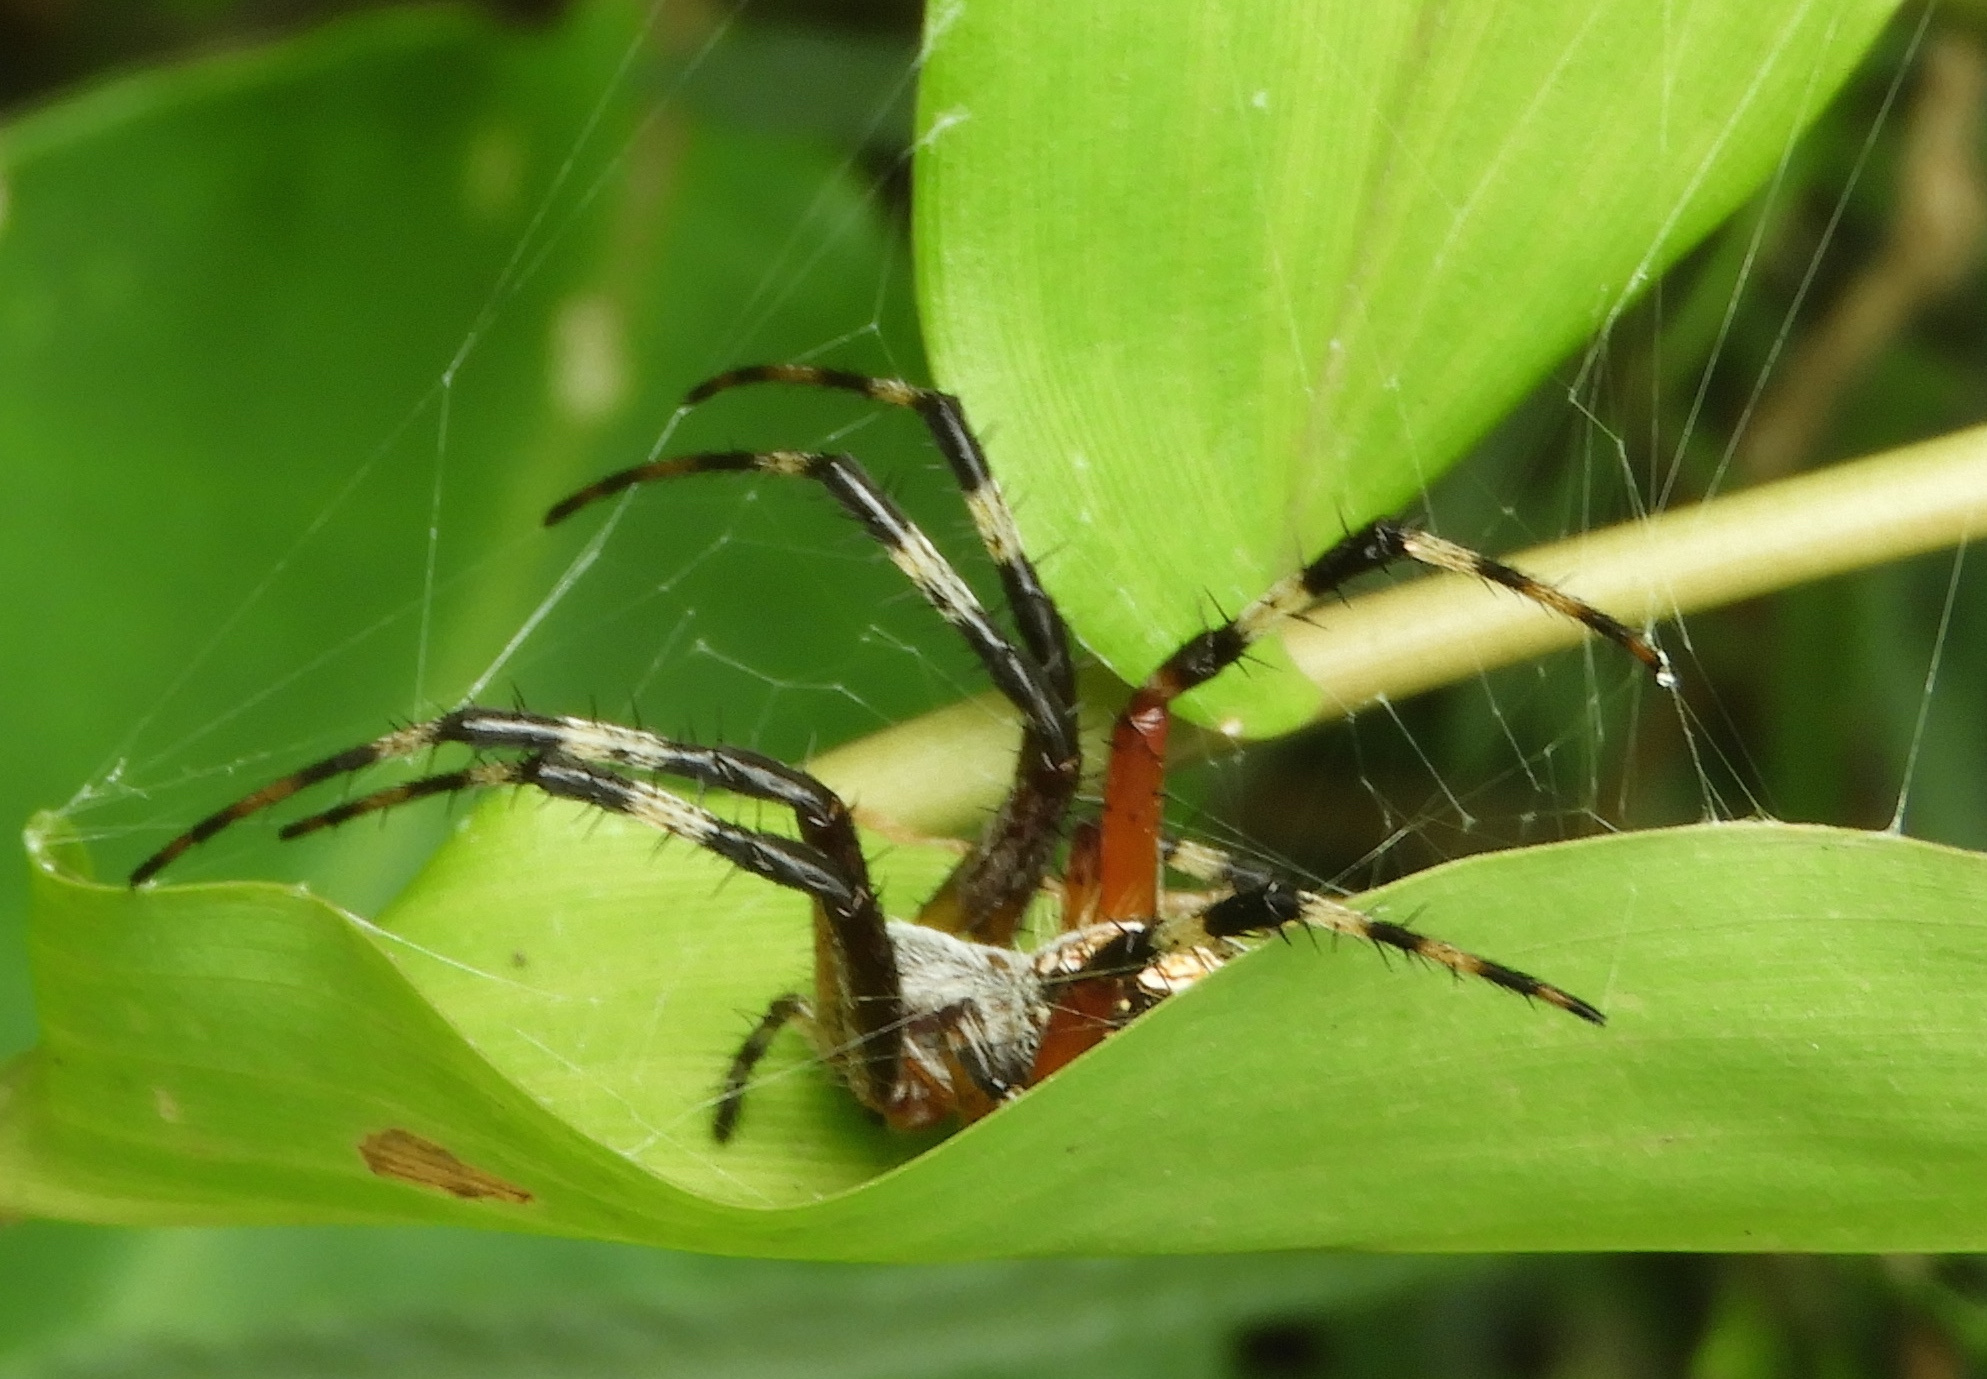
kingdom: Animalia
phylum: Arthropoda
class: Arachnida
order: Araneae
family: Araneidae
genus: Neoscona
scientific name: Neoscona oaxacensis
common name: Orb weavers
